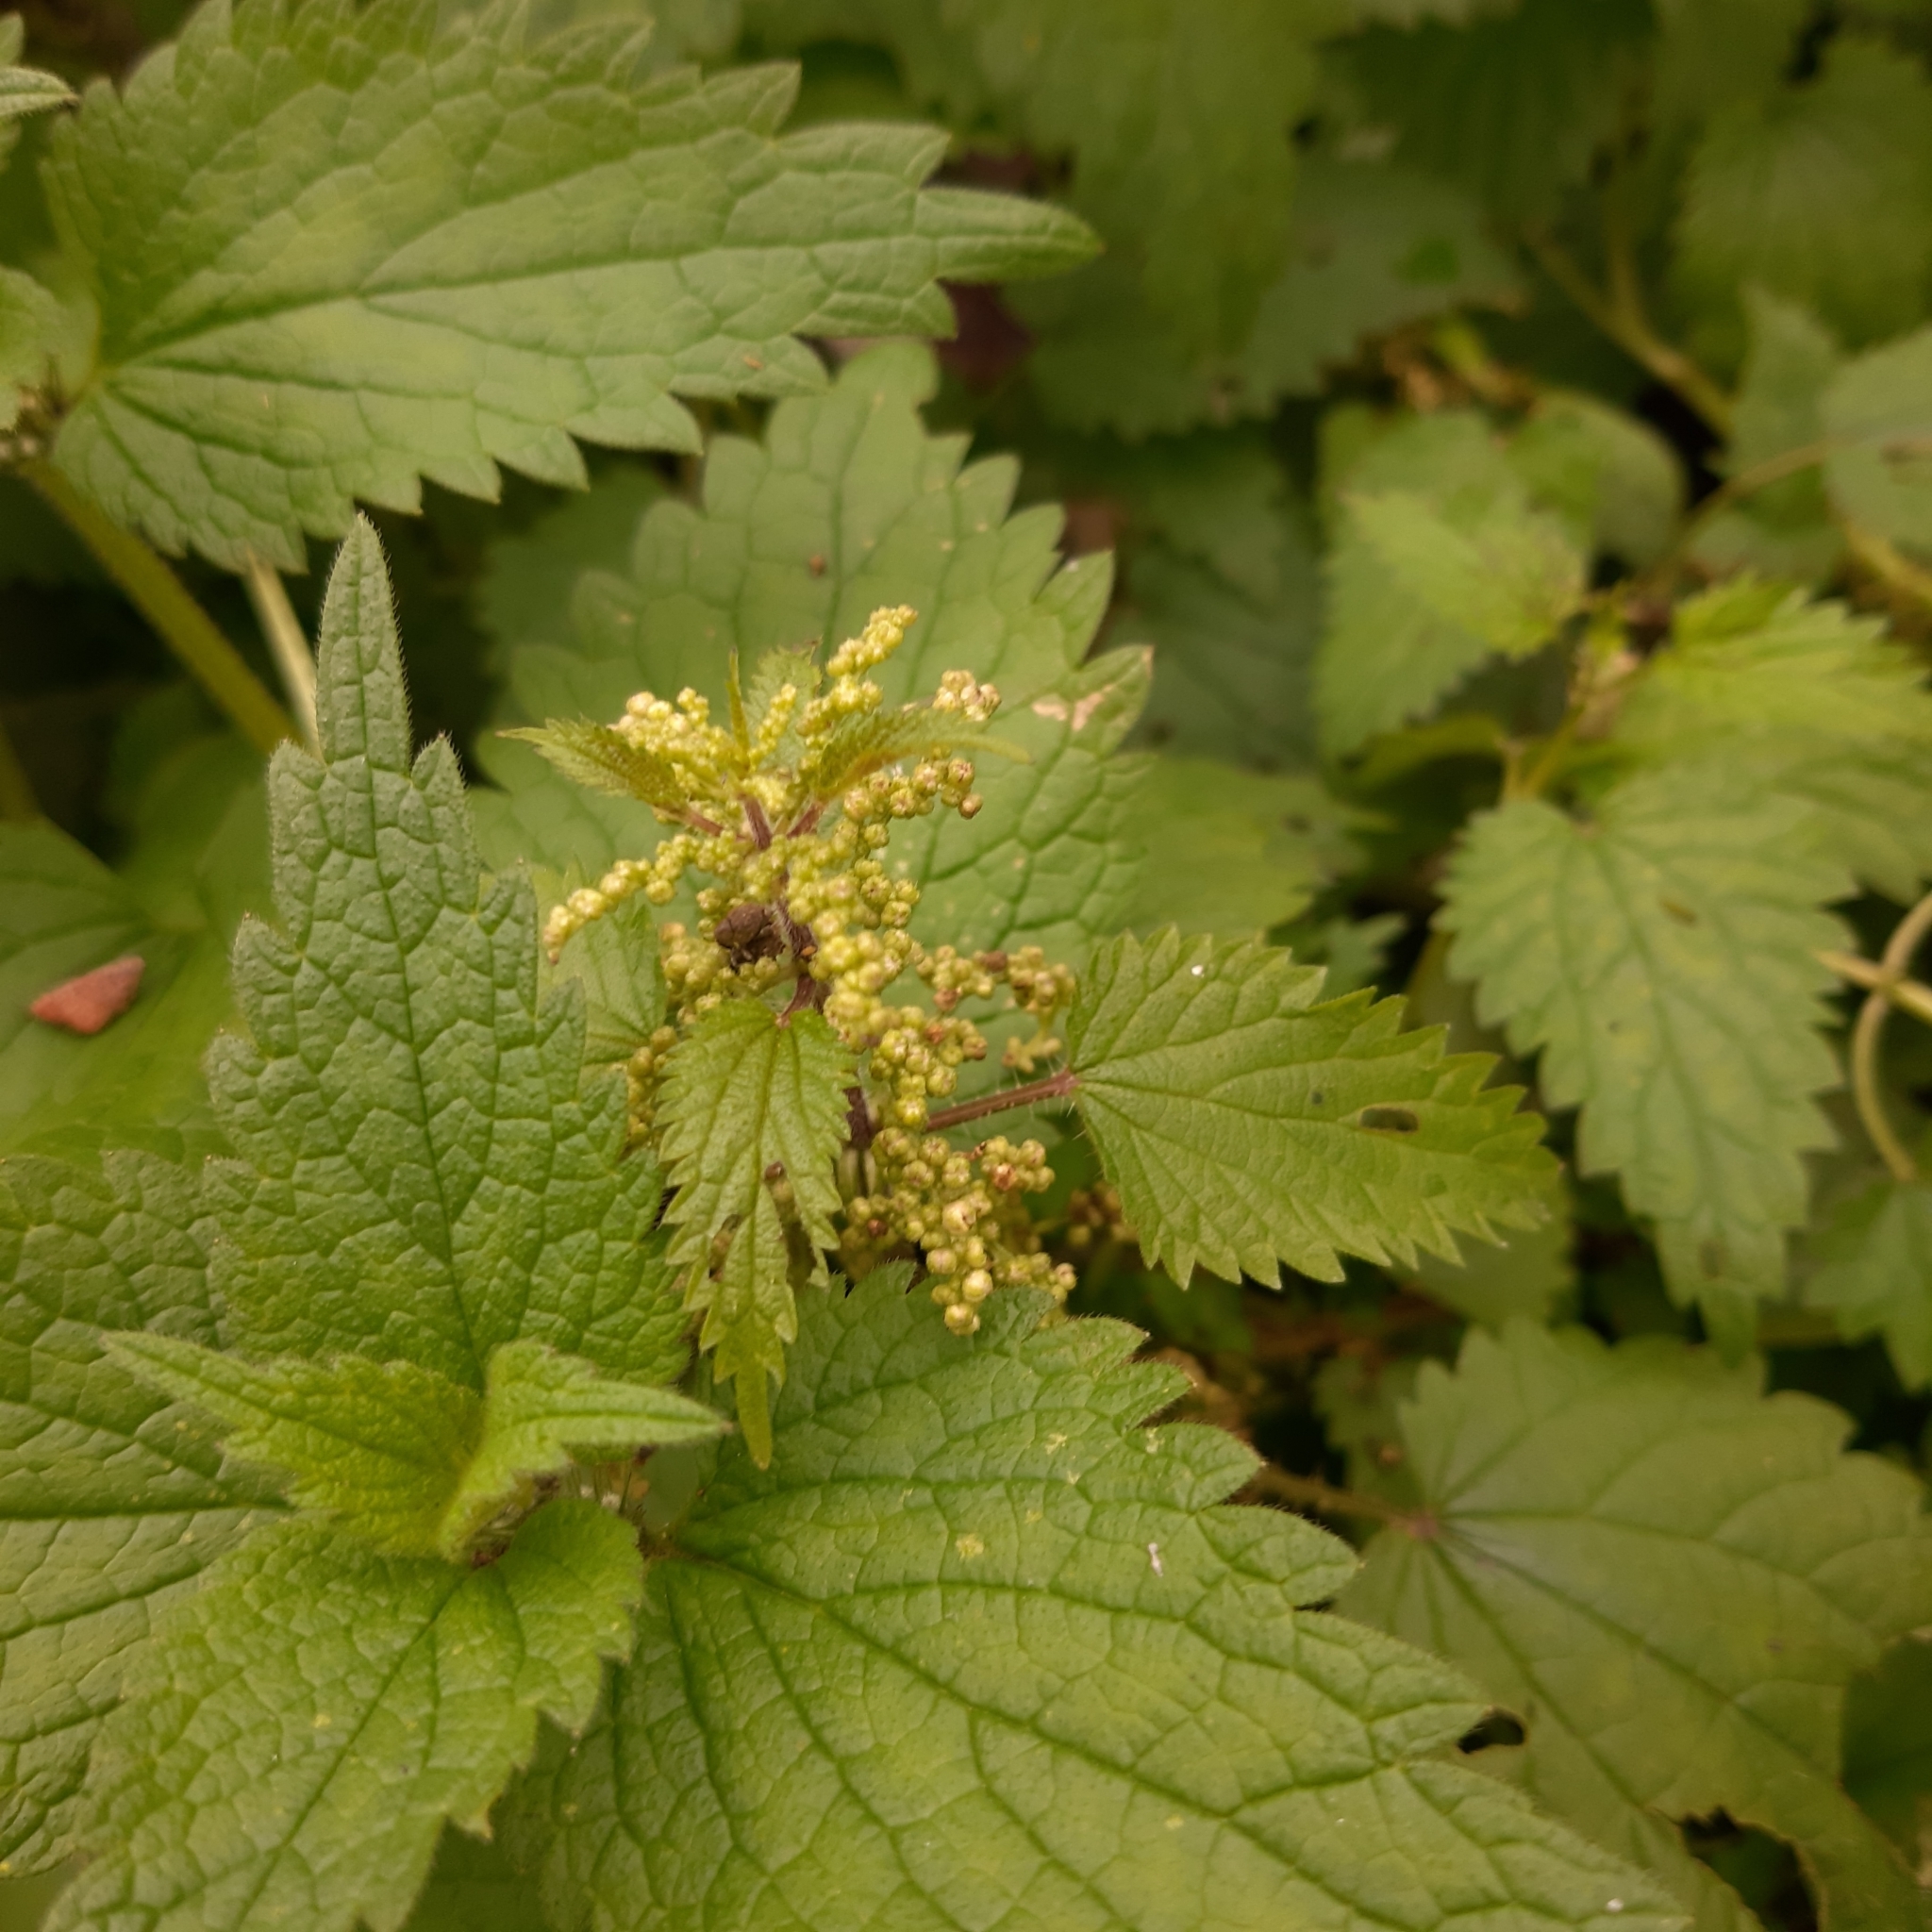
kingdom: Plantae
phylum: Tracheophyta
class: Magnoliopsida
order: Rosales
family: Urticaceae
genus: Urtica
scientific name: Urtica dioica
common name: Common nettle
